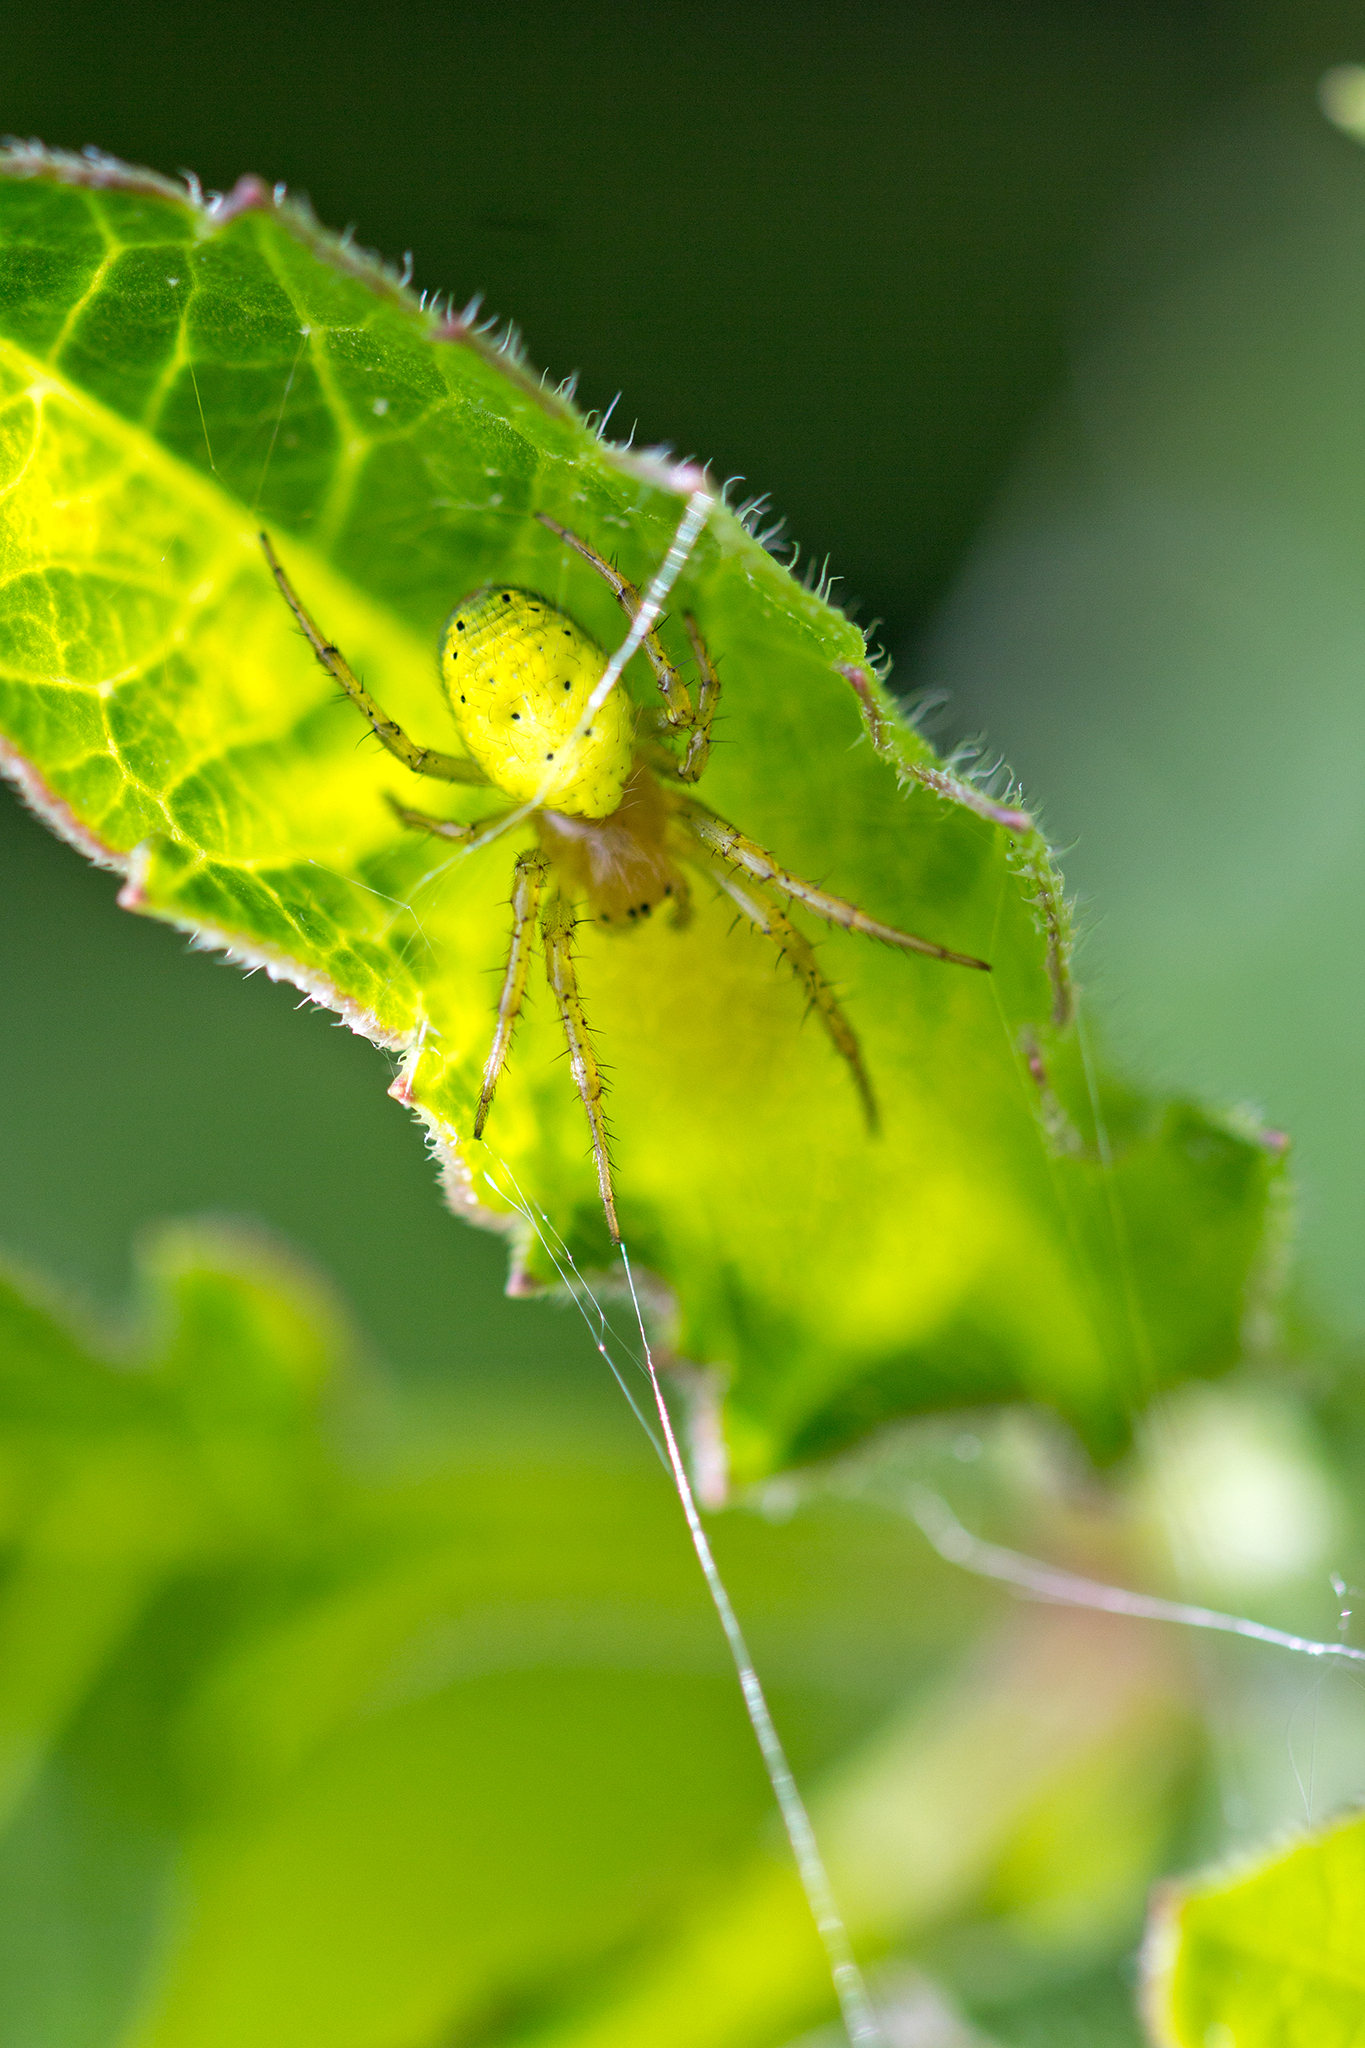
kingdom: Animalia
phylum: Arthropoda
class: Arachnida
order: Araneae
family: Araneidae
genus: Araniella
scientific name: Araniella
